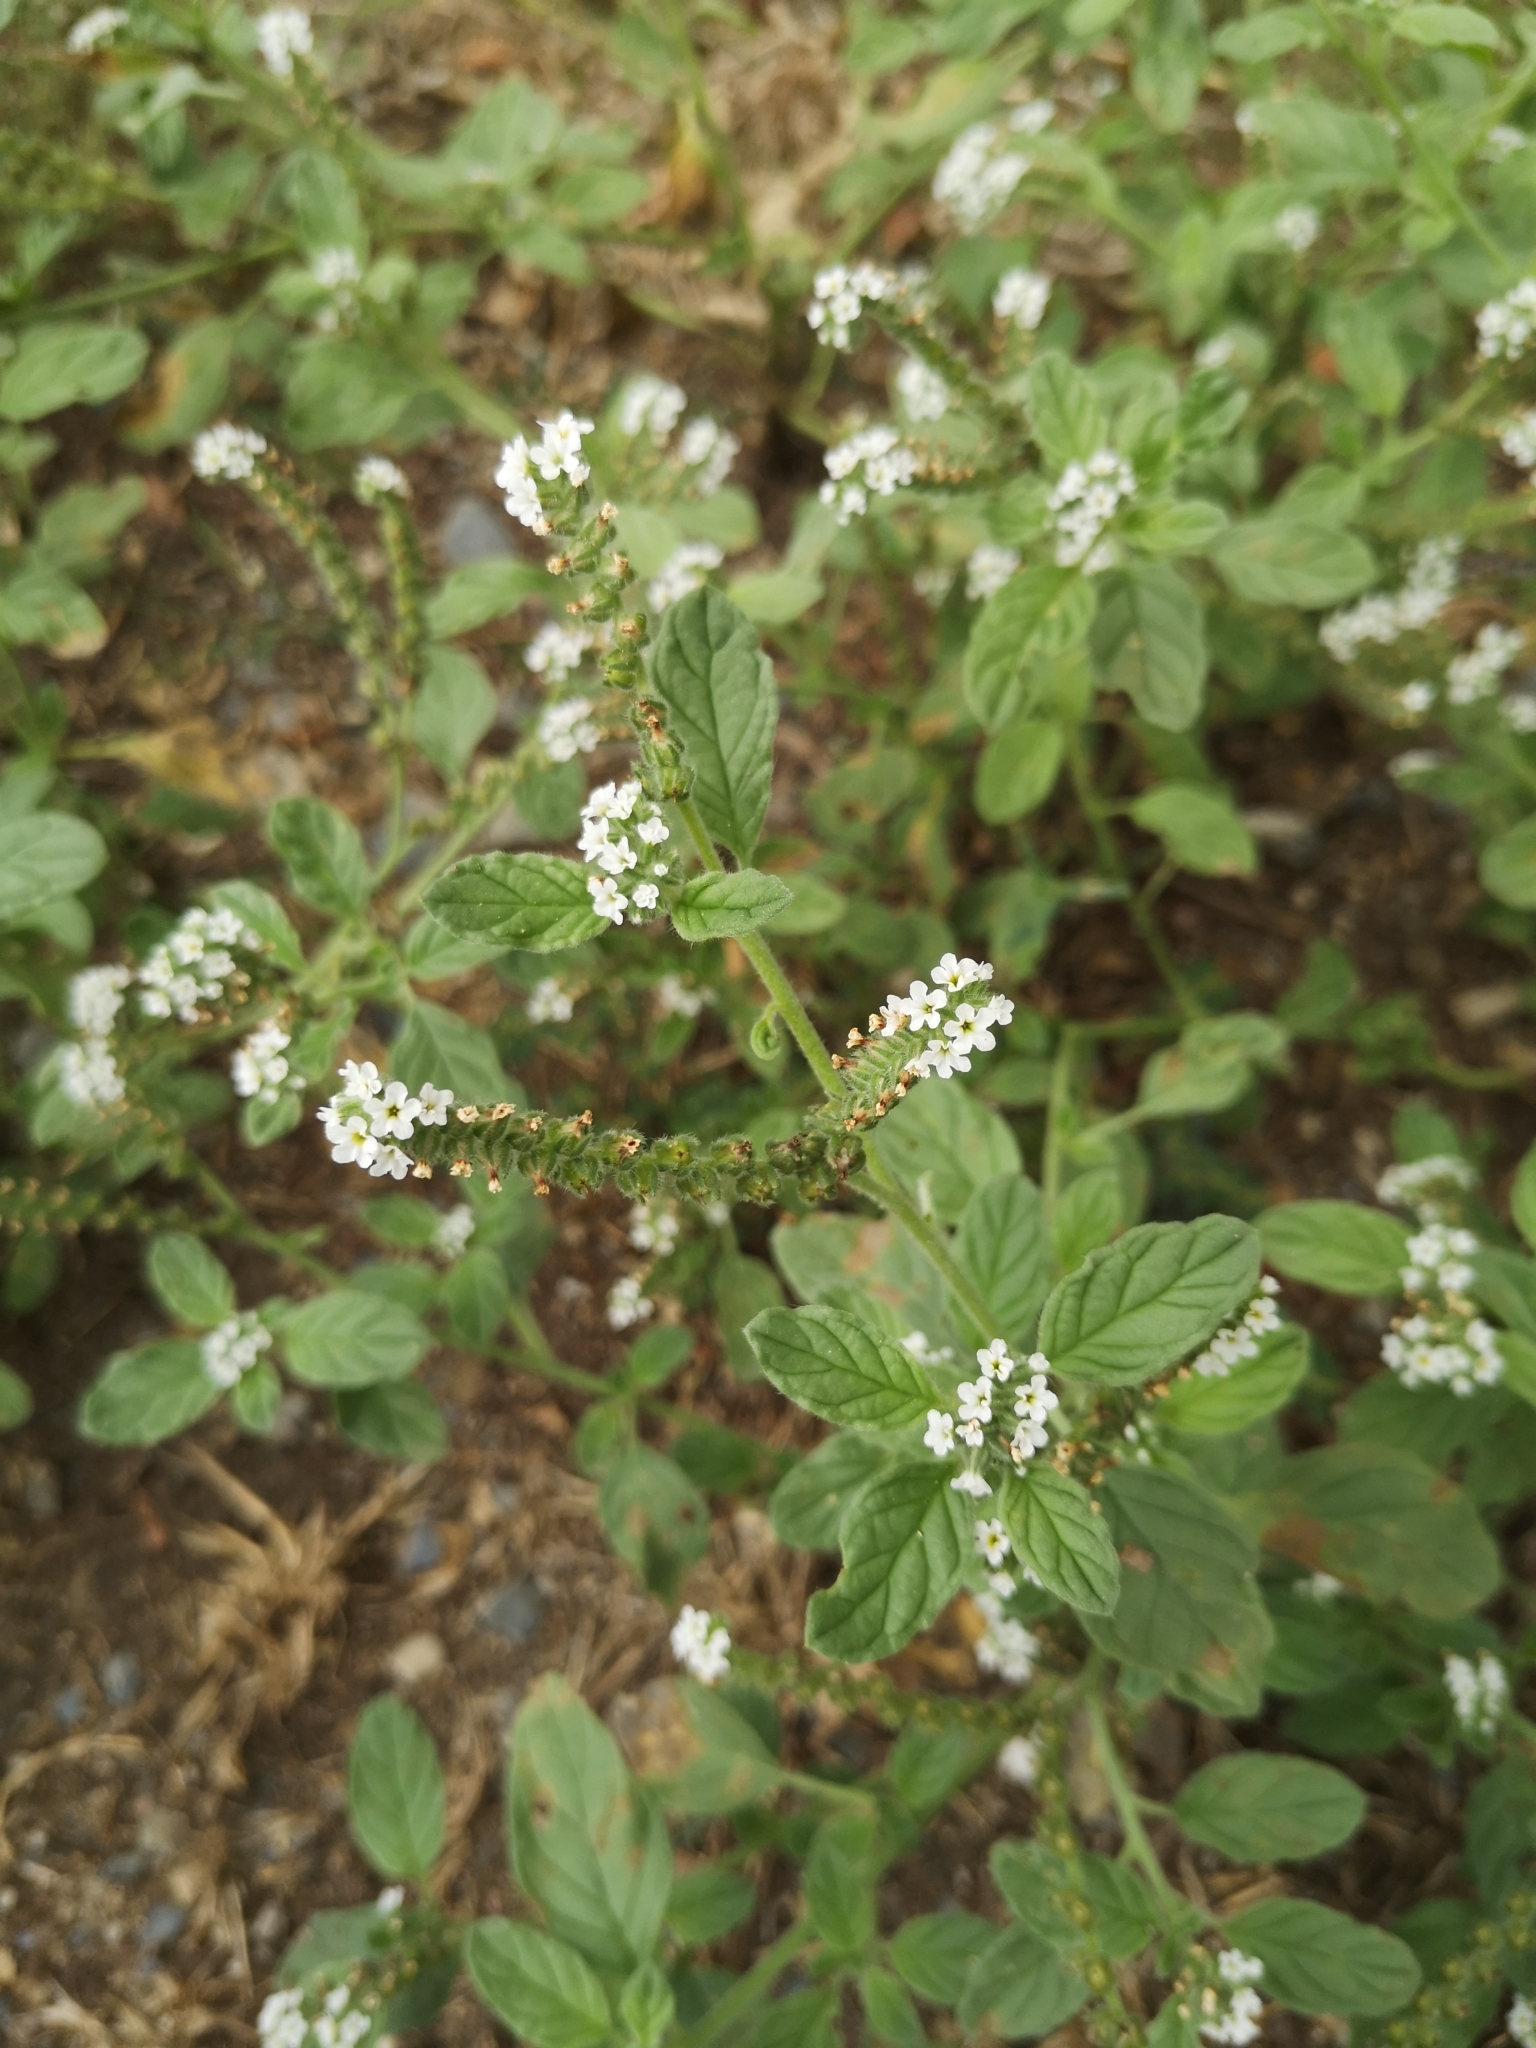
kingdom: Plantae
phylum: Tracheophyta
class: Magnoliopsida
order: Boraginales
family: Heliotropiaceae
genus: Heliotropium
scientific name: Heliotropium europaeum
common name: European heliotrope
